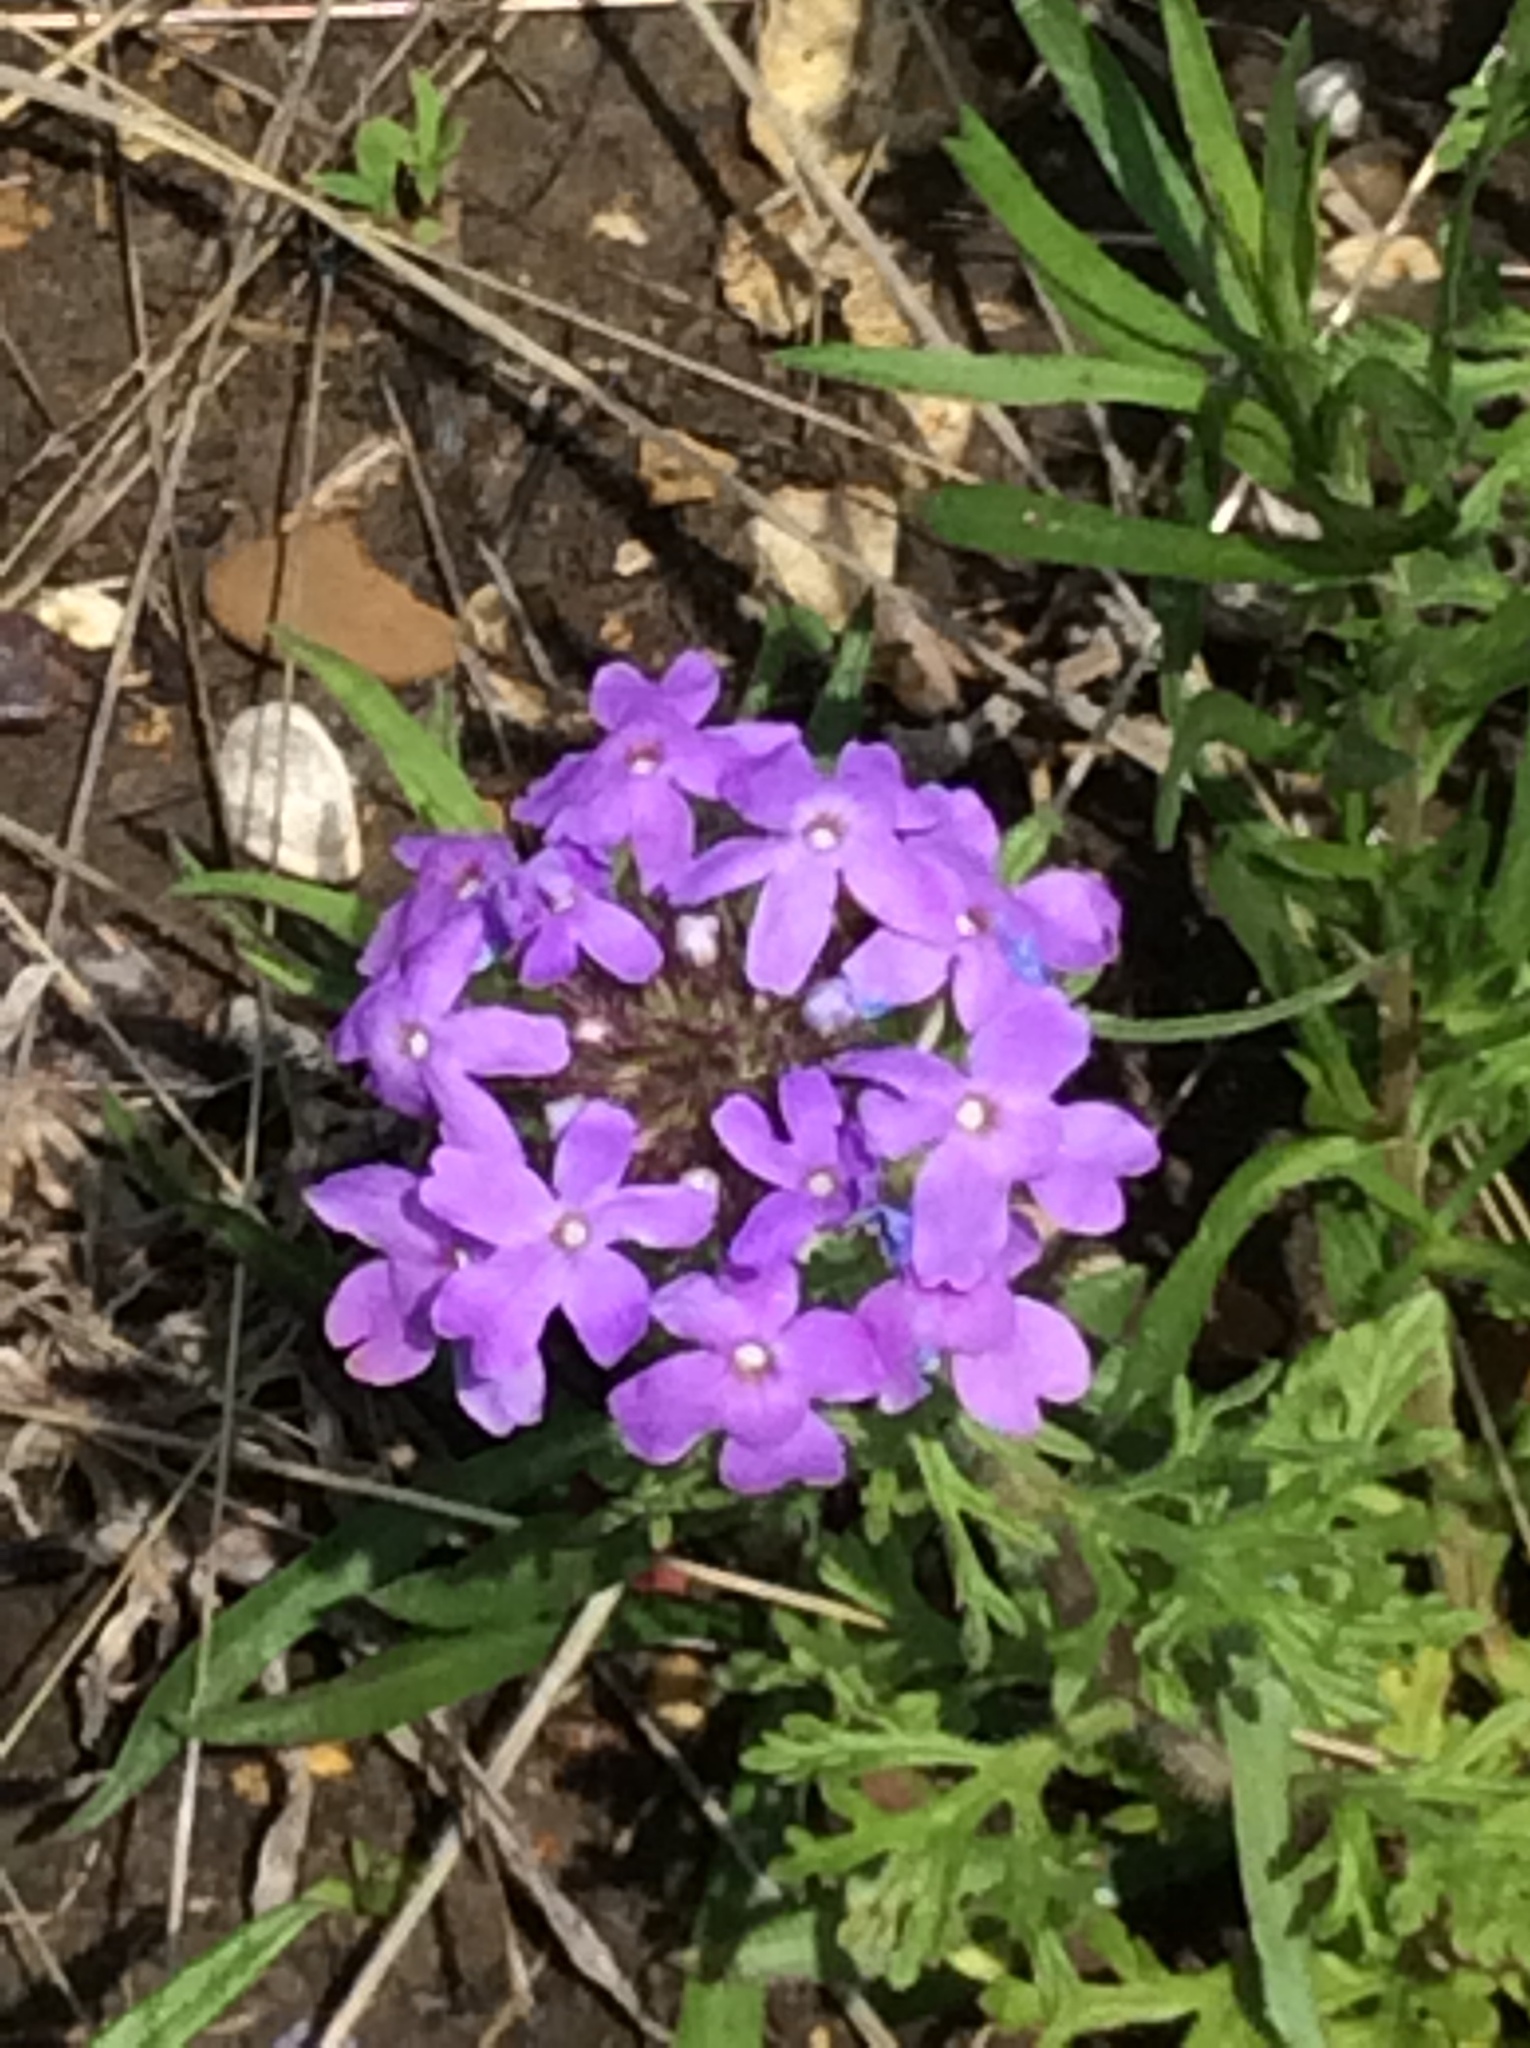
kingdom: Plantae
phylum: Tracheophyta
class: Magnoliopsida
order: Lamiales
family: Verbenaceae
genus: Verbena
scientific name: Verbena bipinnatifida
